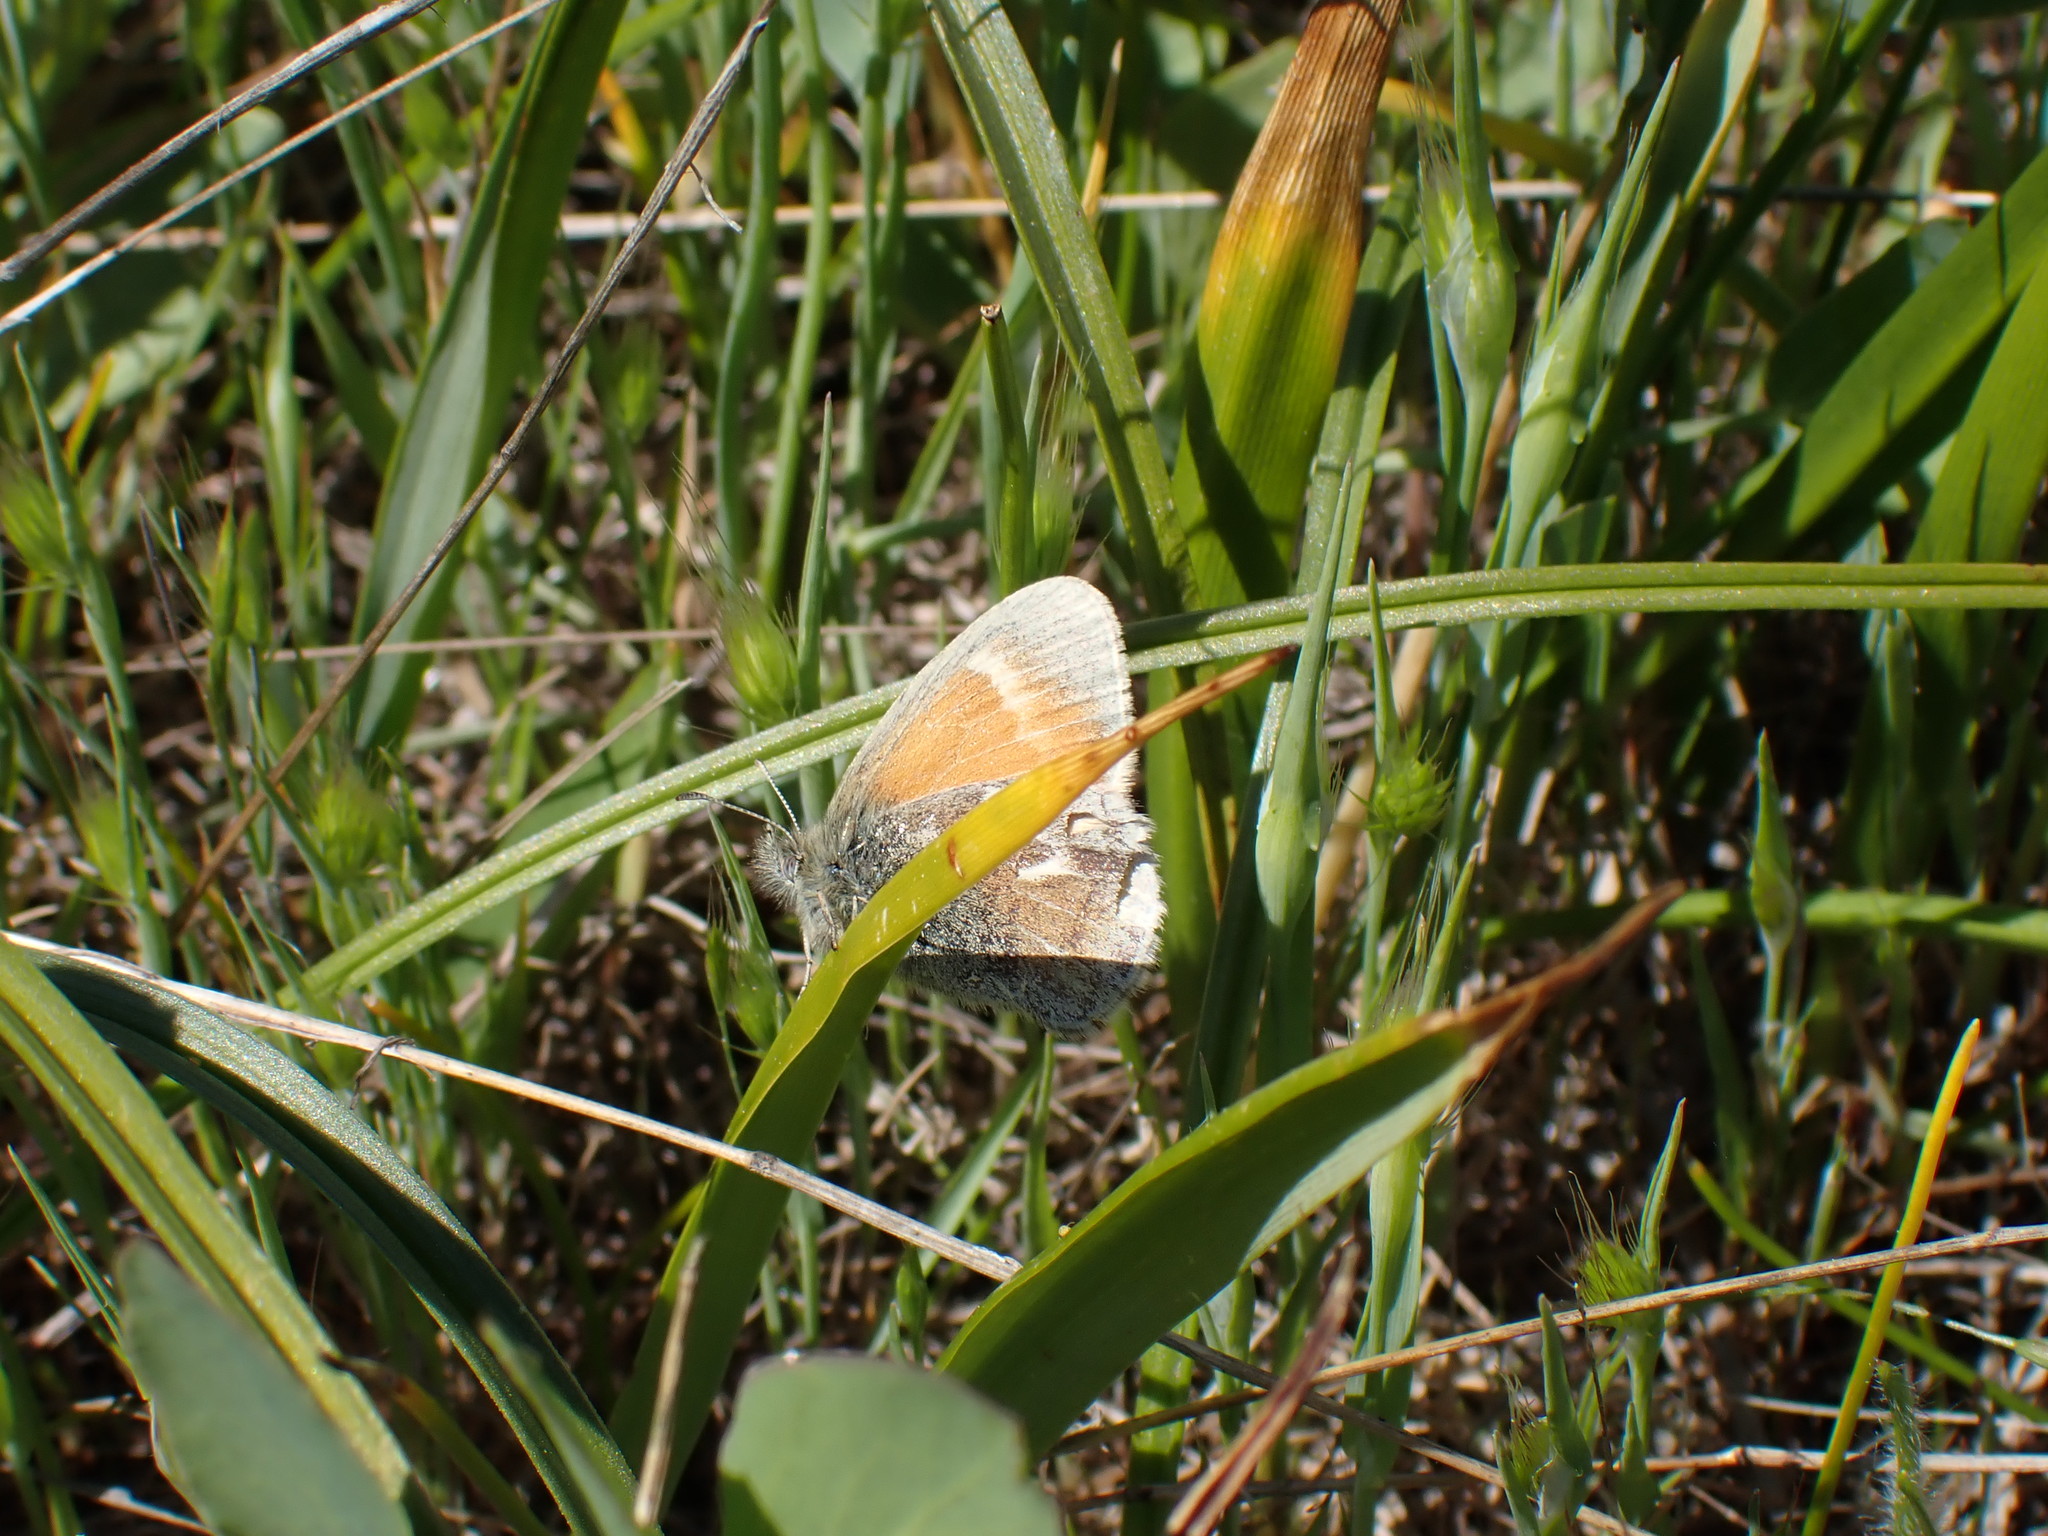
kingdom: Animalia
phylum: Arthropoda
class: Insecta
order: Lepidoptera
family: Nymphalidae
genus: Coenonympha
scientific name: Coenonympha california
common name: Common ringlet
